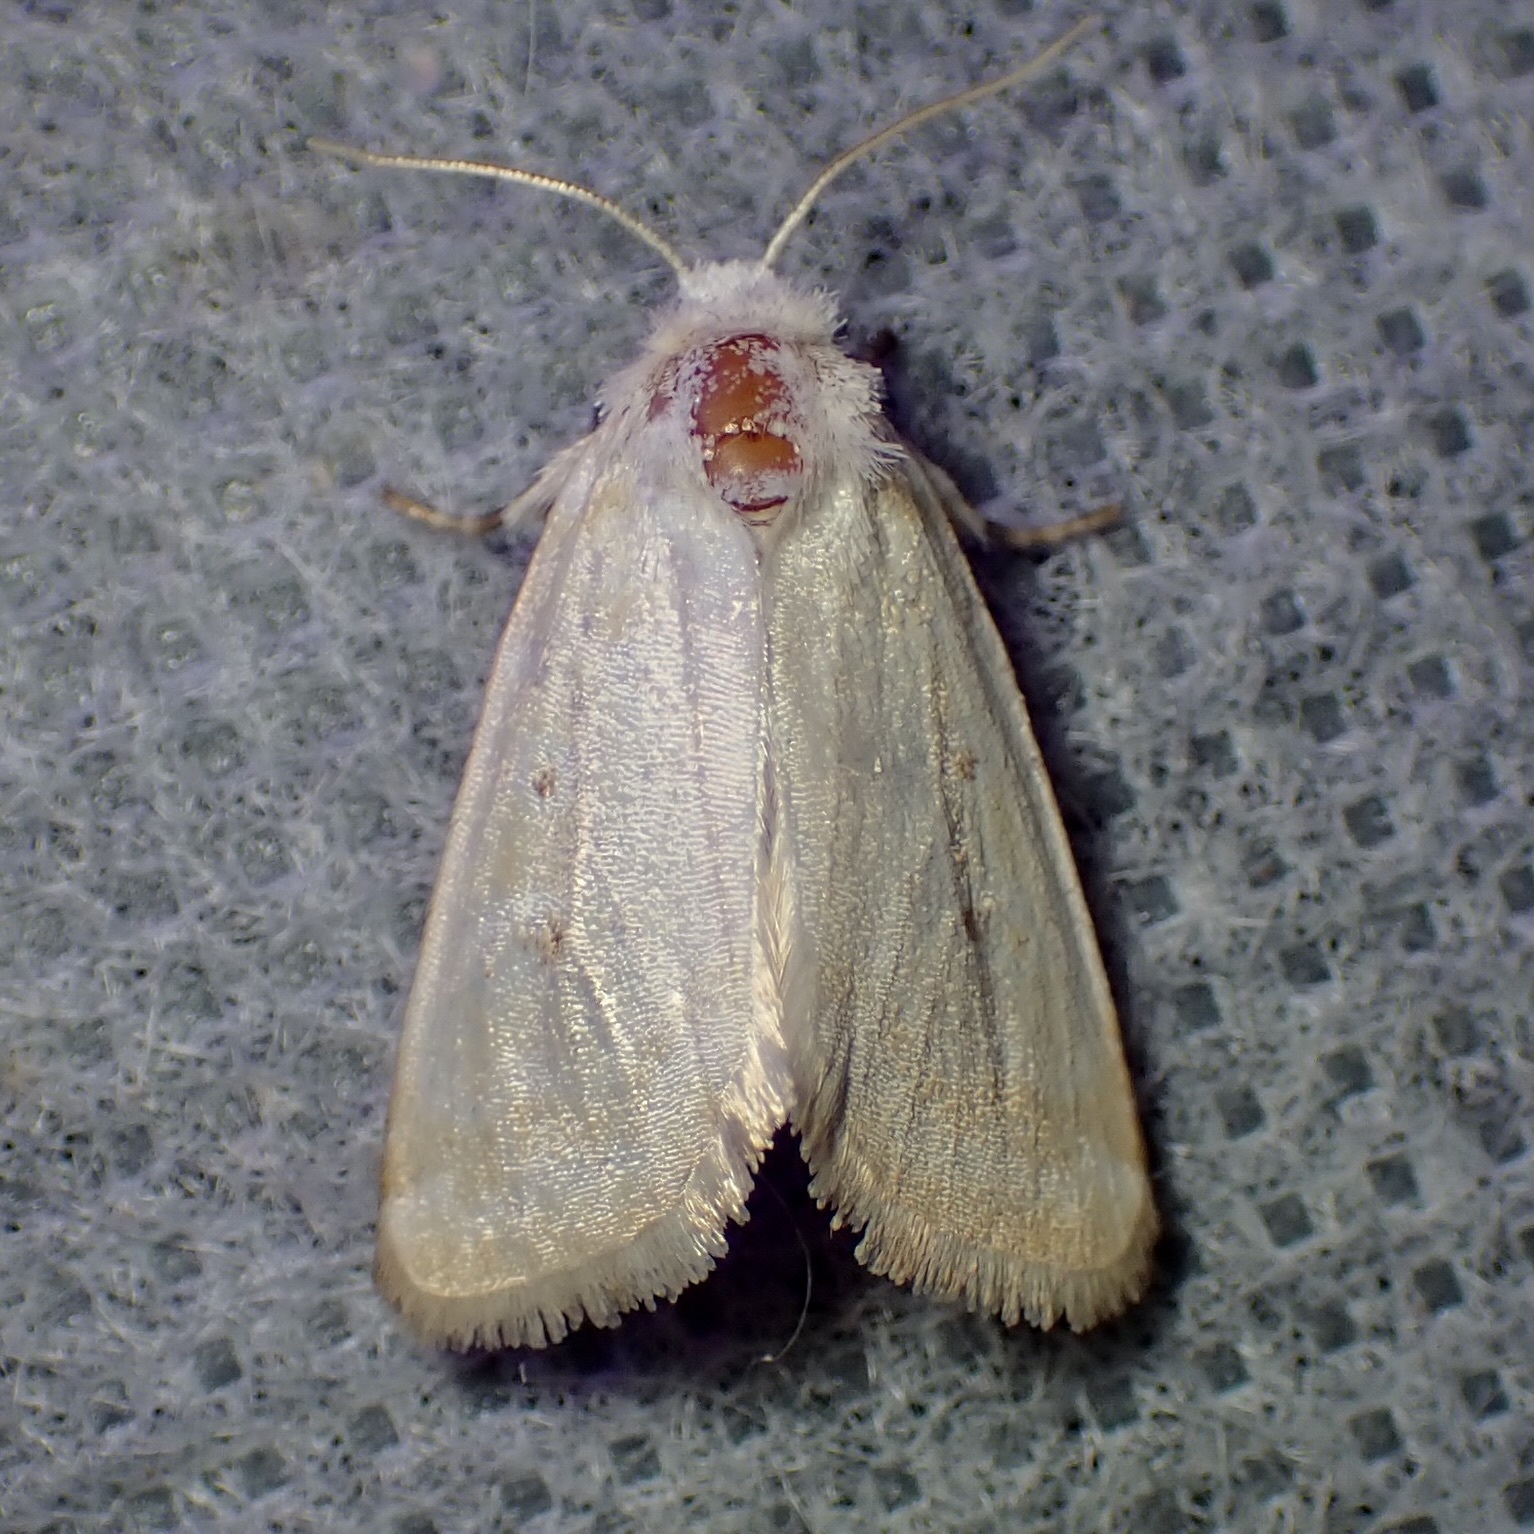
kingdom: Animalia
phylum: Arthropoda
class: Insecta
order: Lepidoptera
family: Noctuidae
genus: Lythrodes
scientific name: Lythrodes tripuncta
